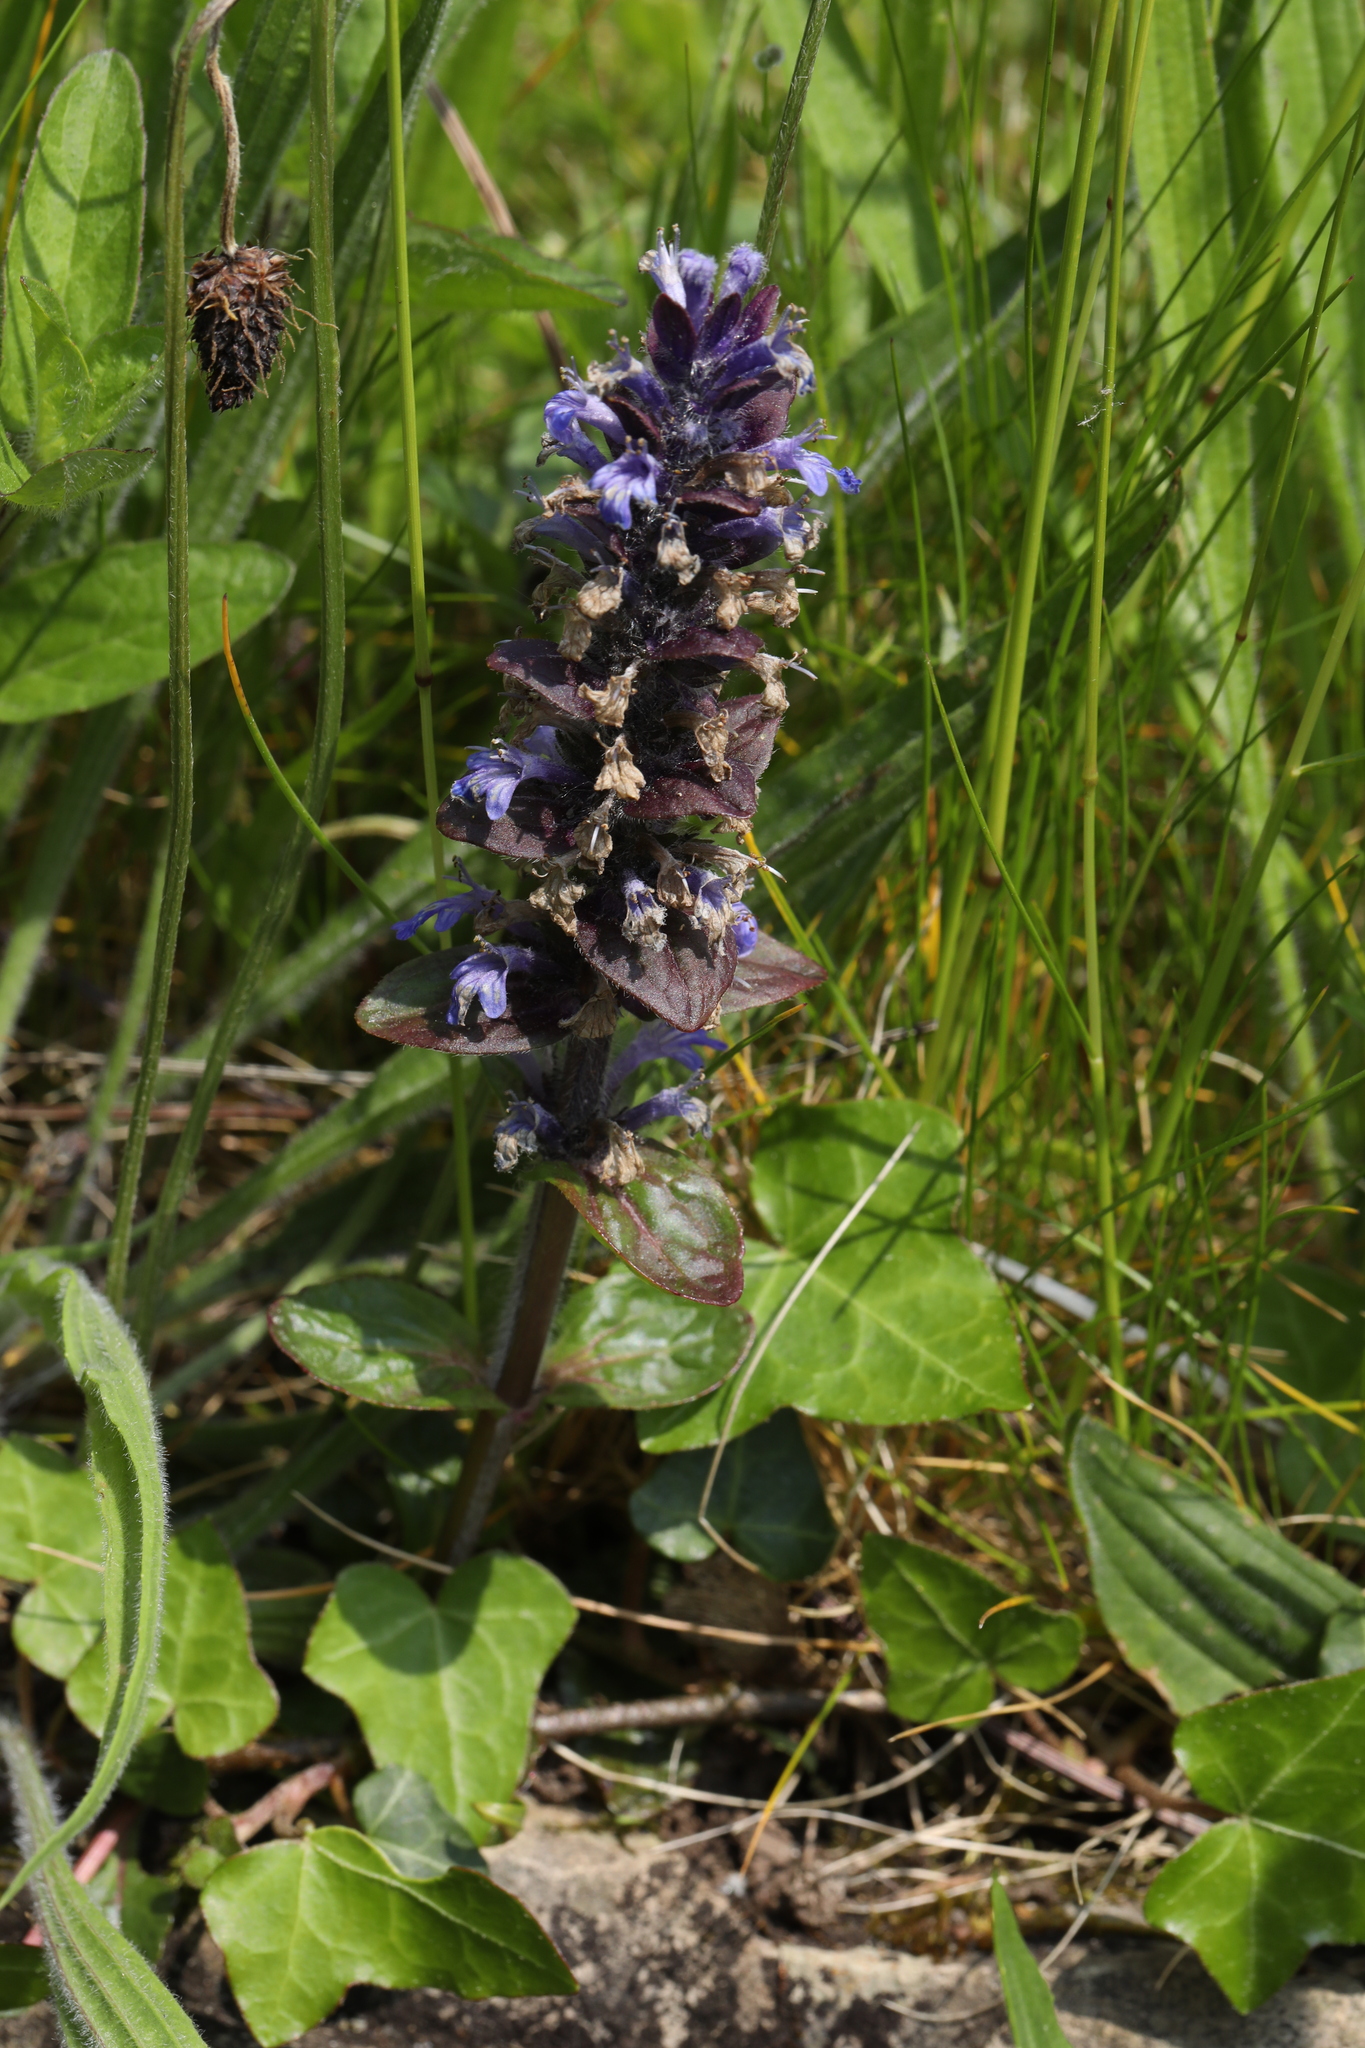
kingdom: Plantae
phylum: Tracheophyta
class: Magnoliopsida
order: Lamiales
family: Lamiaceae
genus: Ajuga
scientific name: Ajuga reptans
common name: Bugle
